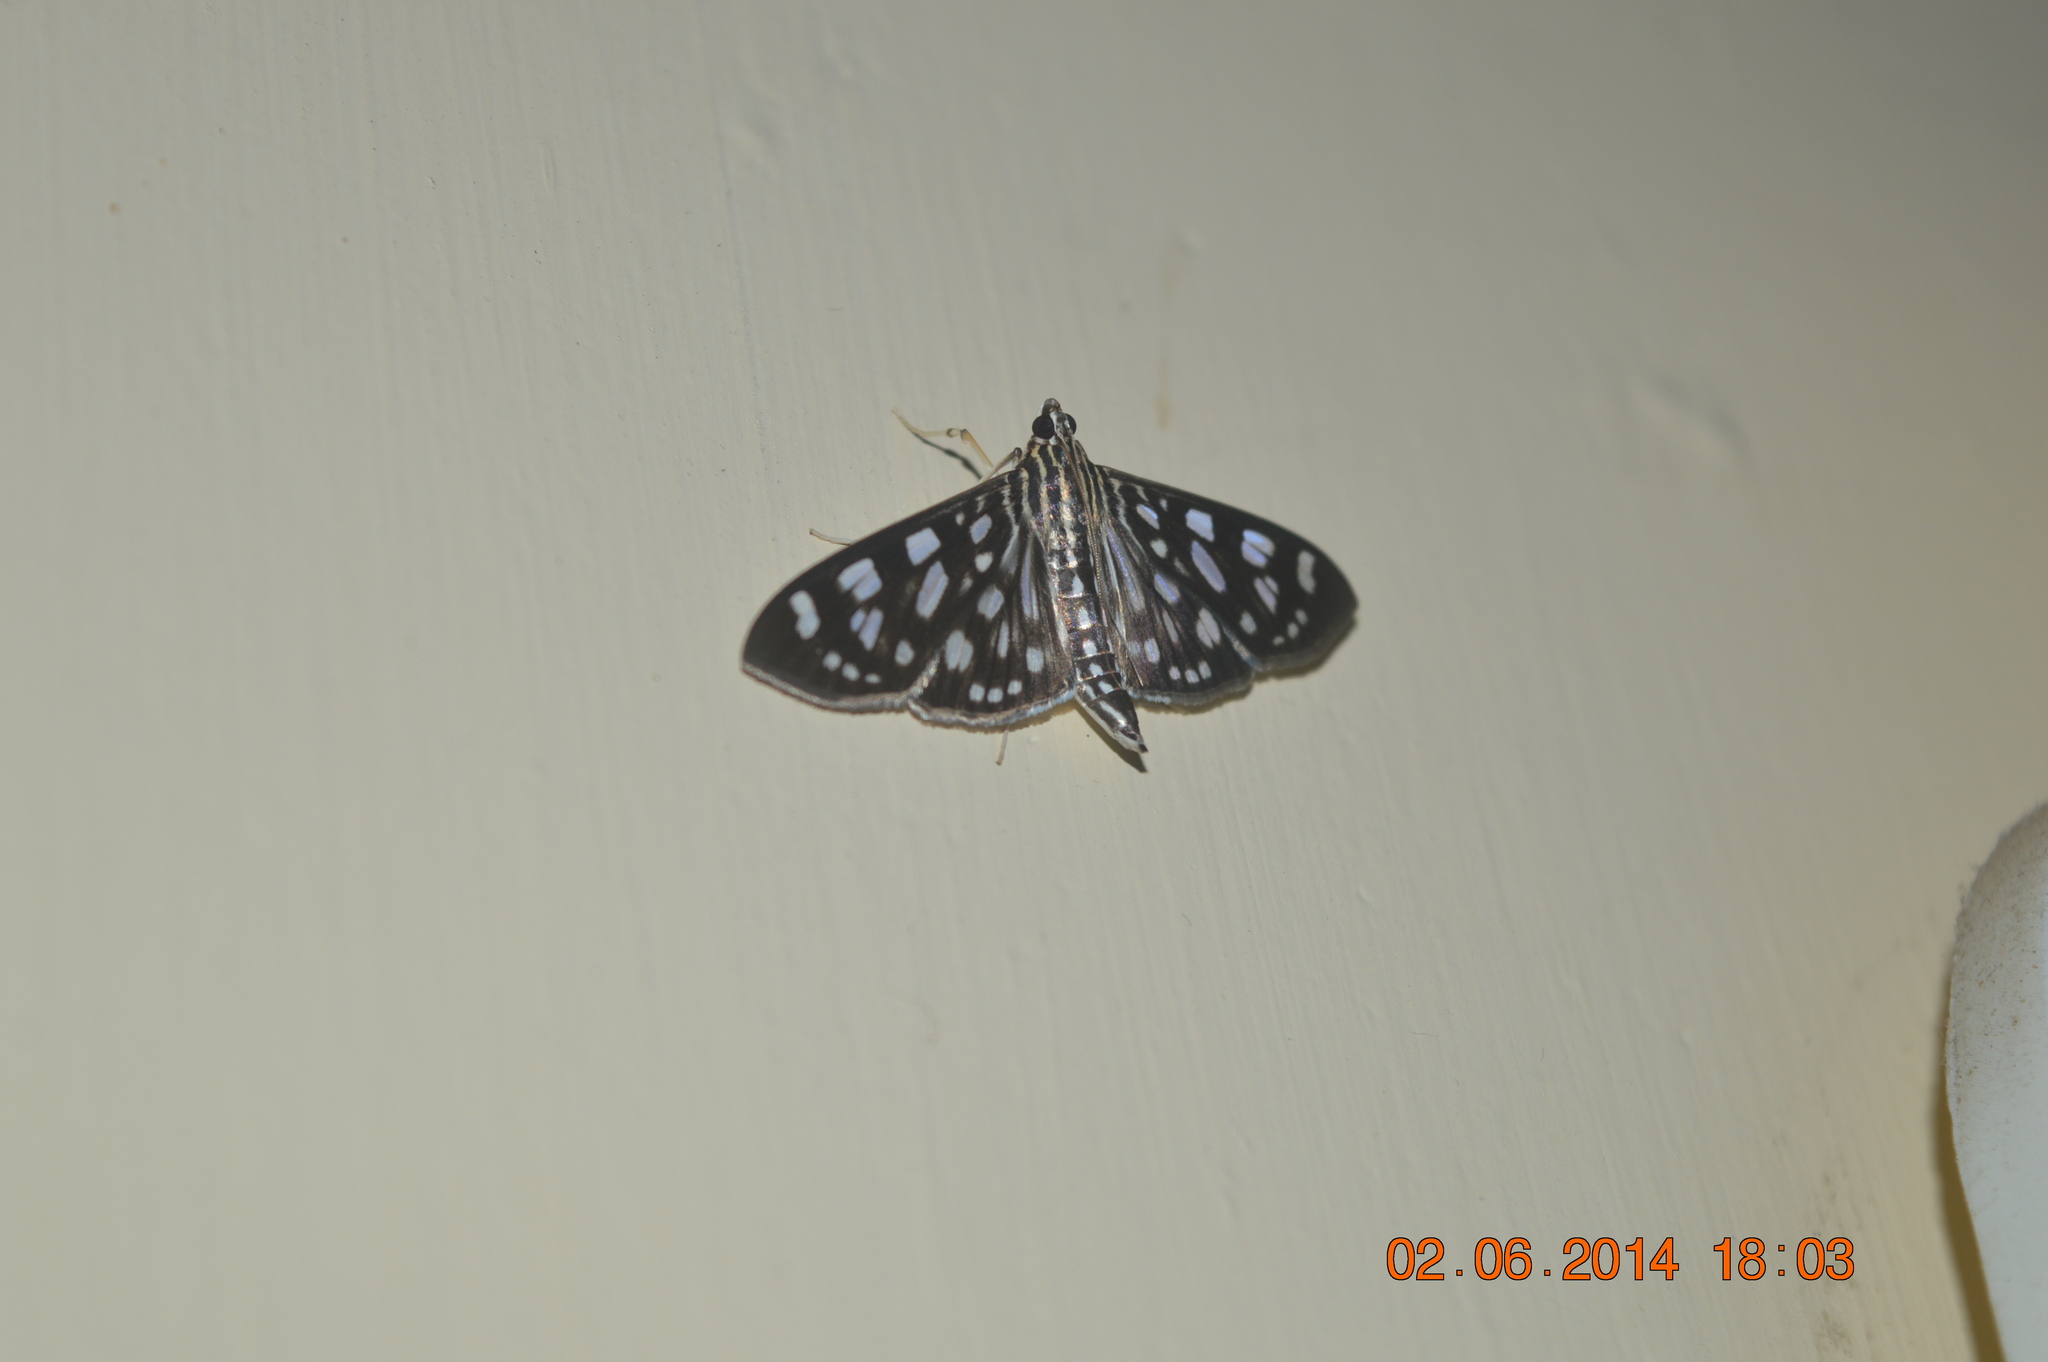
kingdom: Animalia
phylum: Arthropoda
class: Insecta
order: Lepidoptera
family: Crambidae
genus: Pygospila
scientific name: Pygospila tyres
